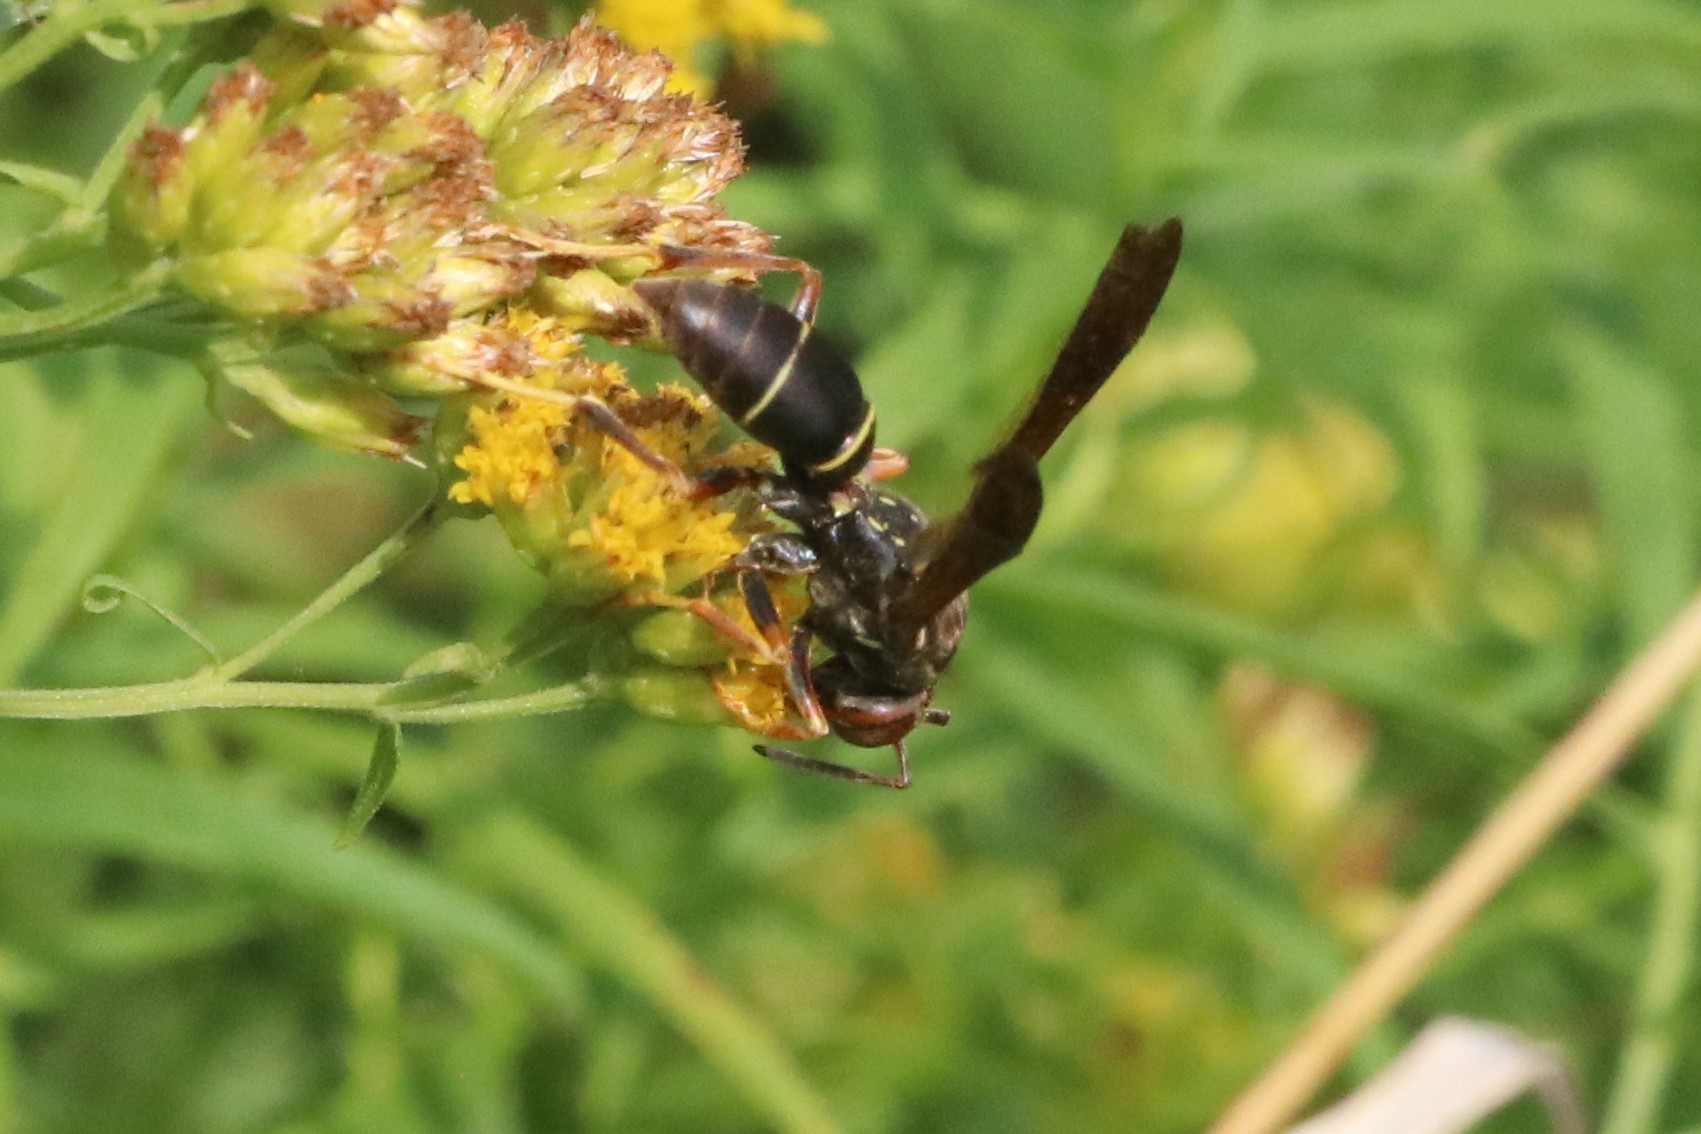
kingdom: Animalia
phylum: Arthropoda
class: Insecta
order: Hymenoptera
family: Eumenidae
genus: Polistes
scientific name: Polistes fuscatus
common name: Dark paper wasp
